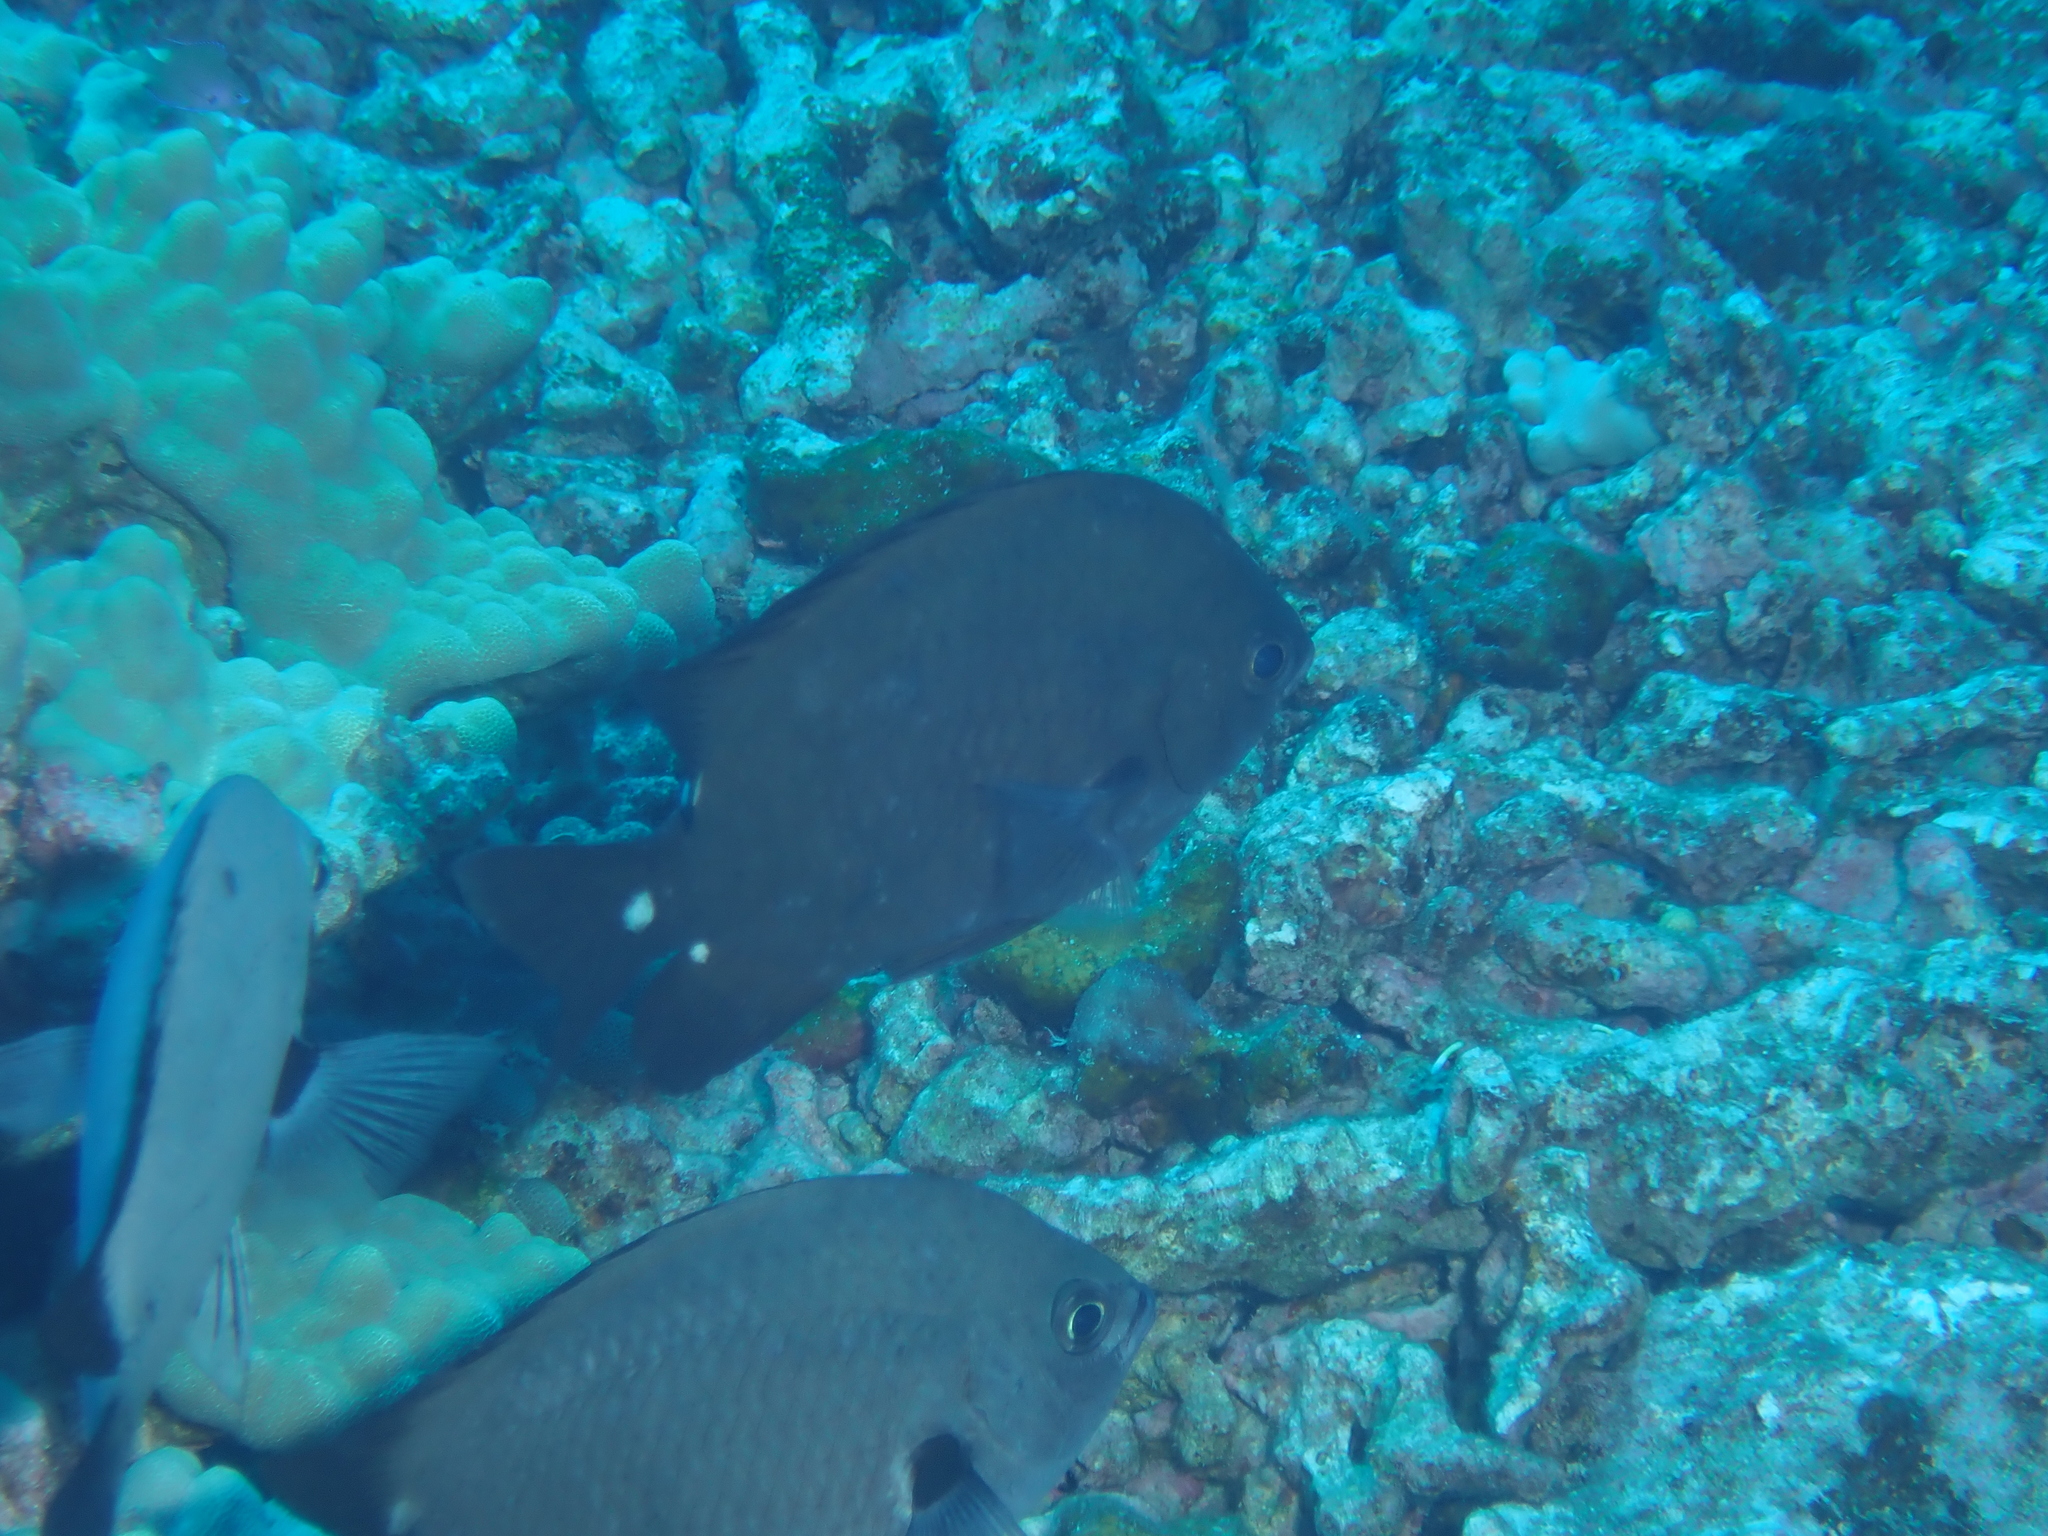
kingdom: Animalia
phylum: Chordata
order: Perciformes
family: Pomacentridae
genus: Chromis
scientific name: Chromis verater
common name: Threespot chromis
